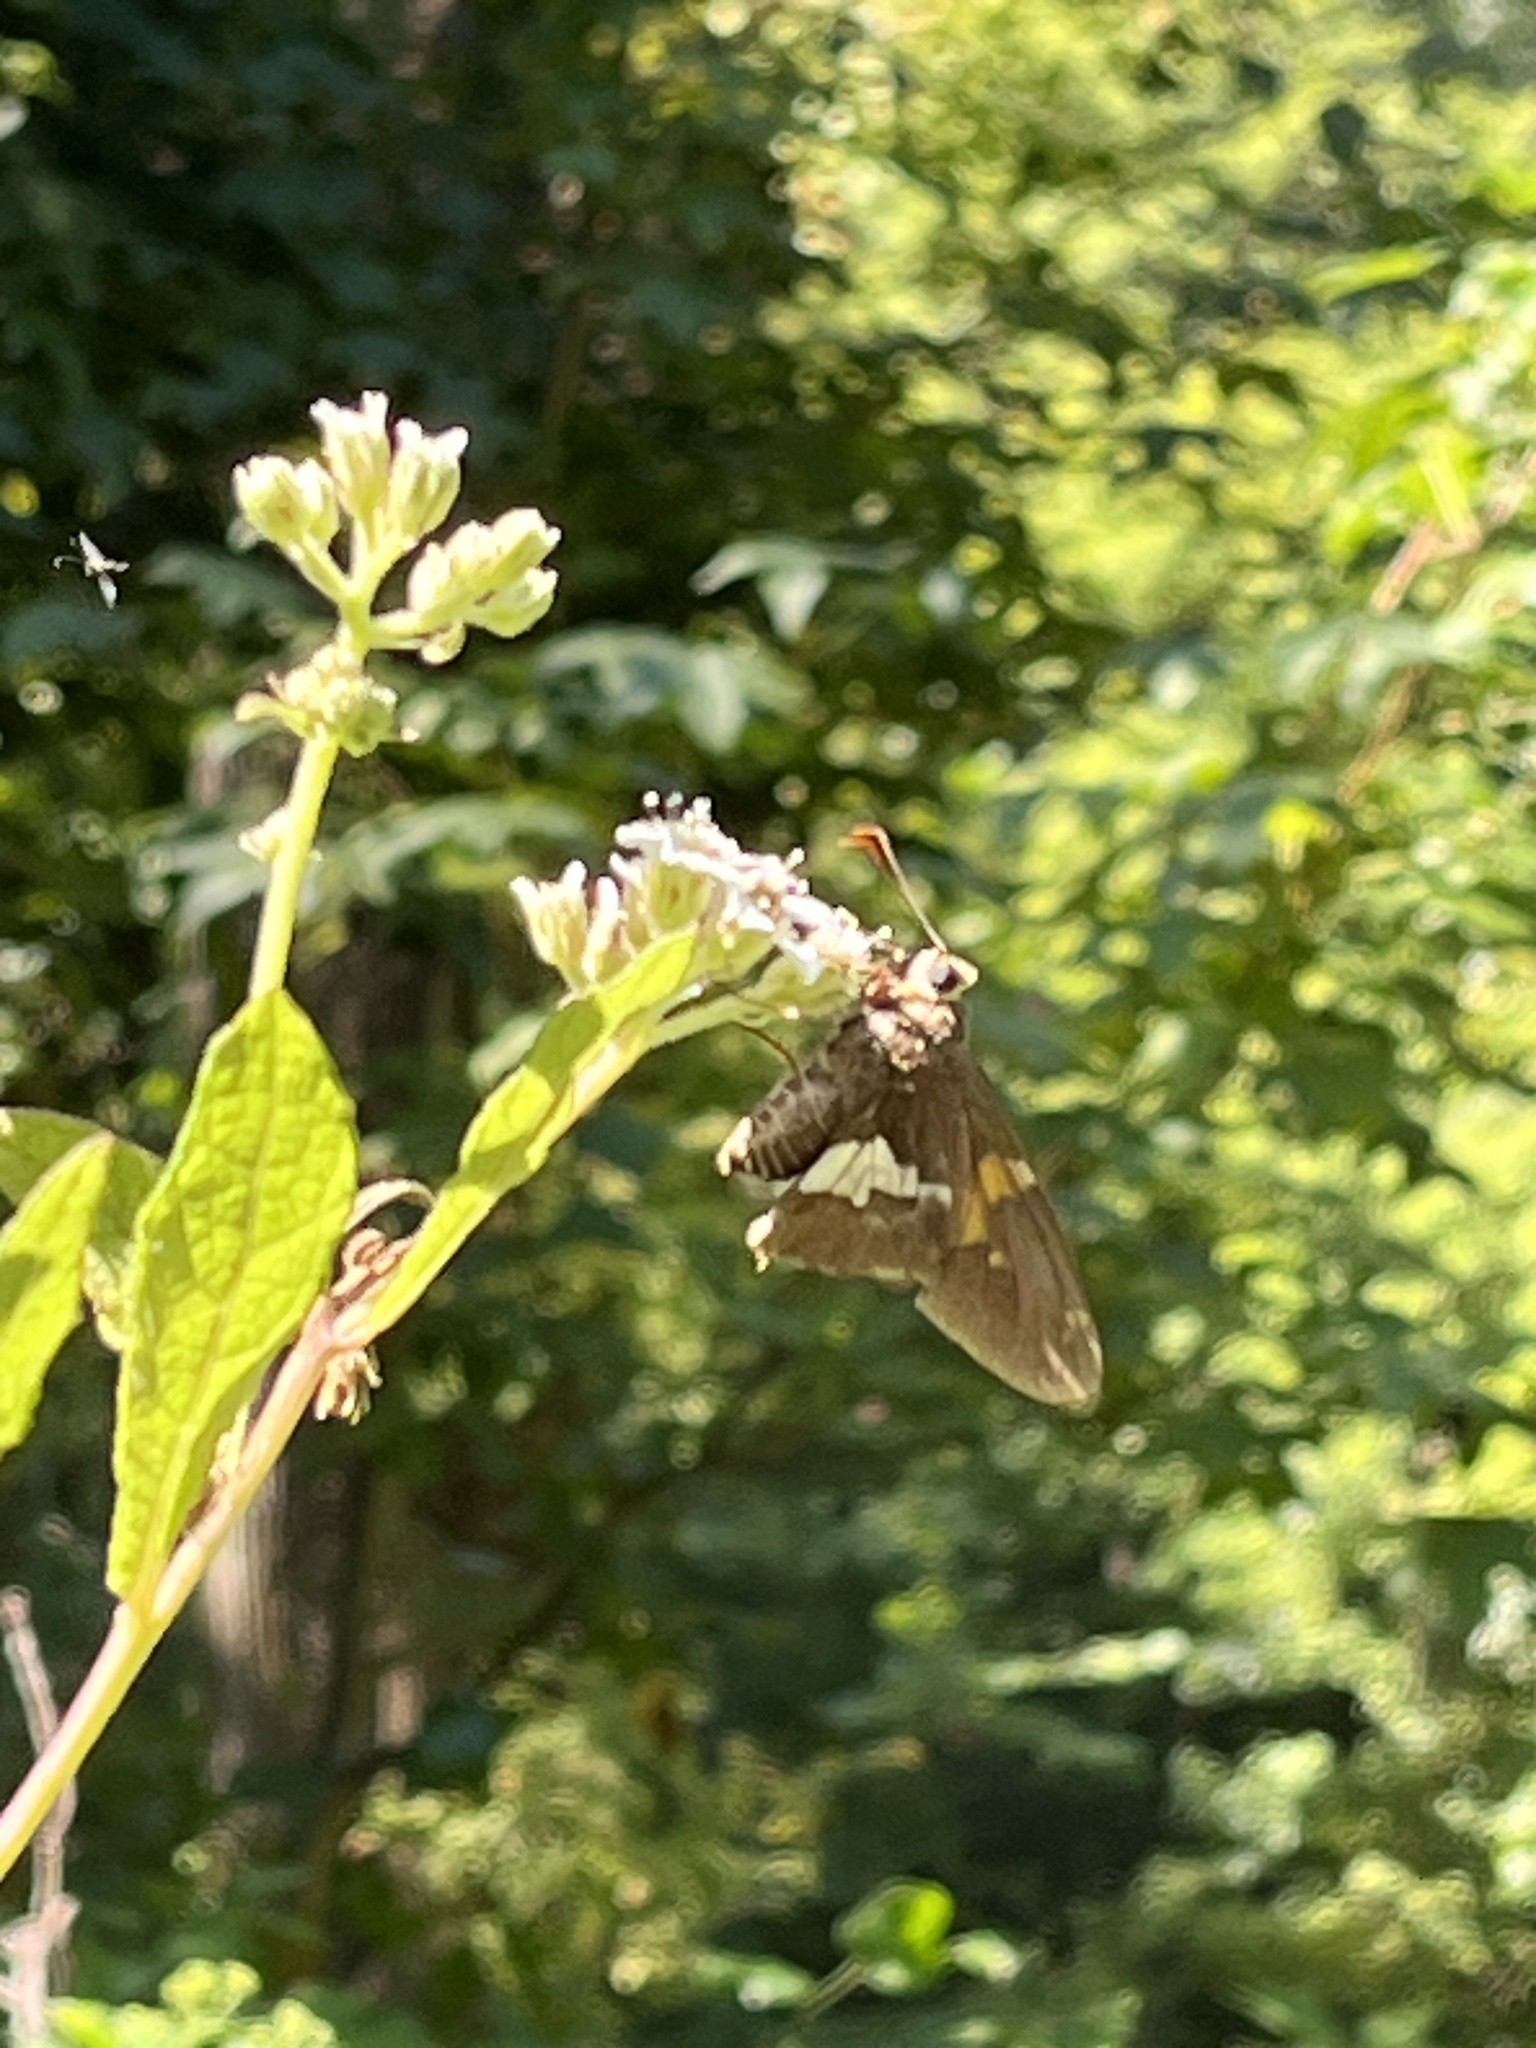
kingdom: Animalia
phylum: Arthropoda
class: Insecta
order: Lepidoptera
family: Hesperiidae
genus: Epargyreus
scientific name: Epargyreus clarus
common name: Silver-spotted skipper
